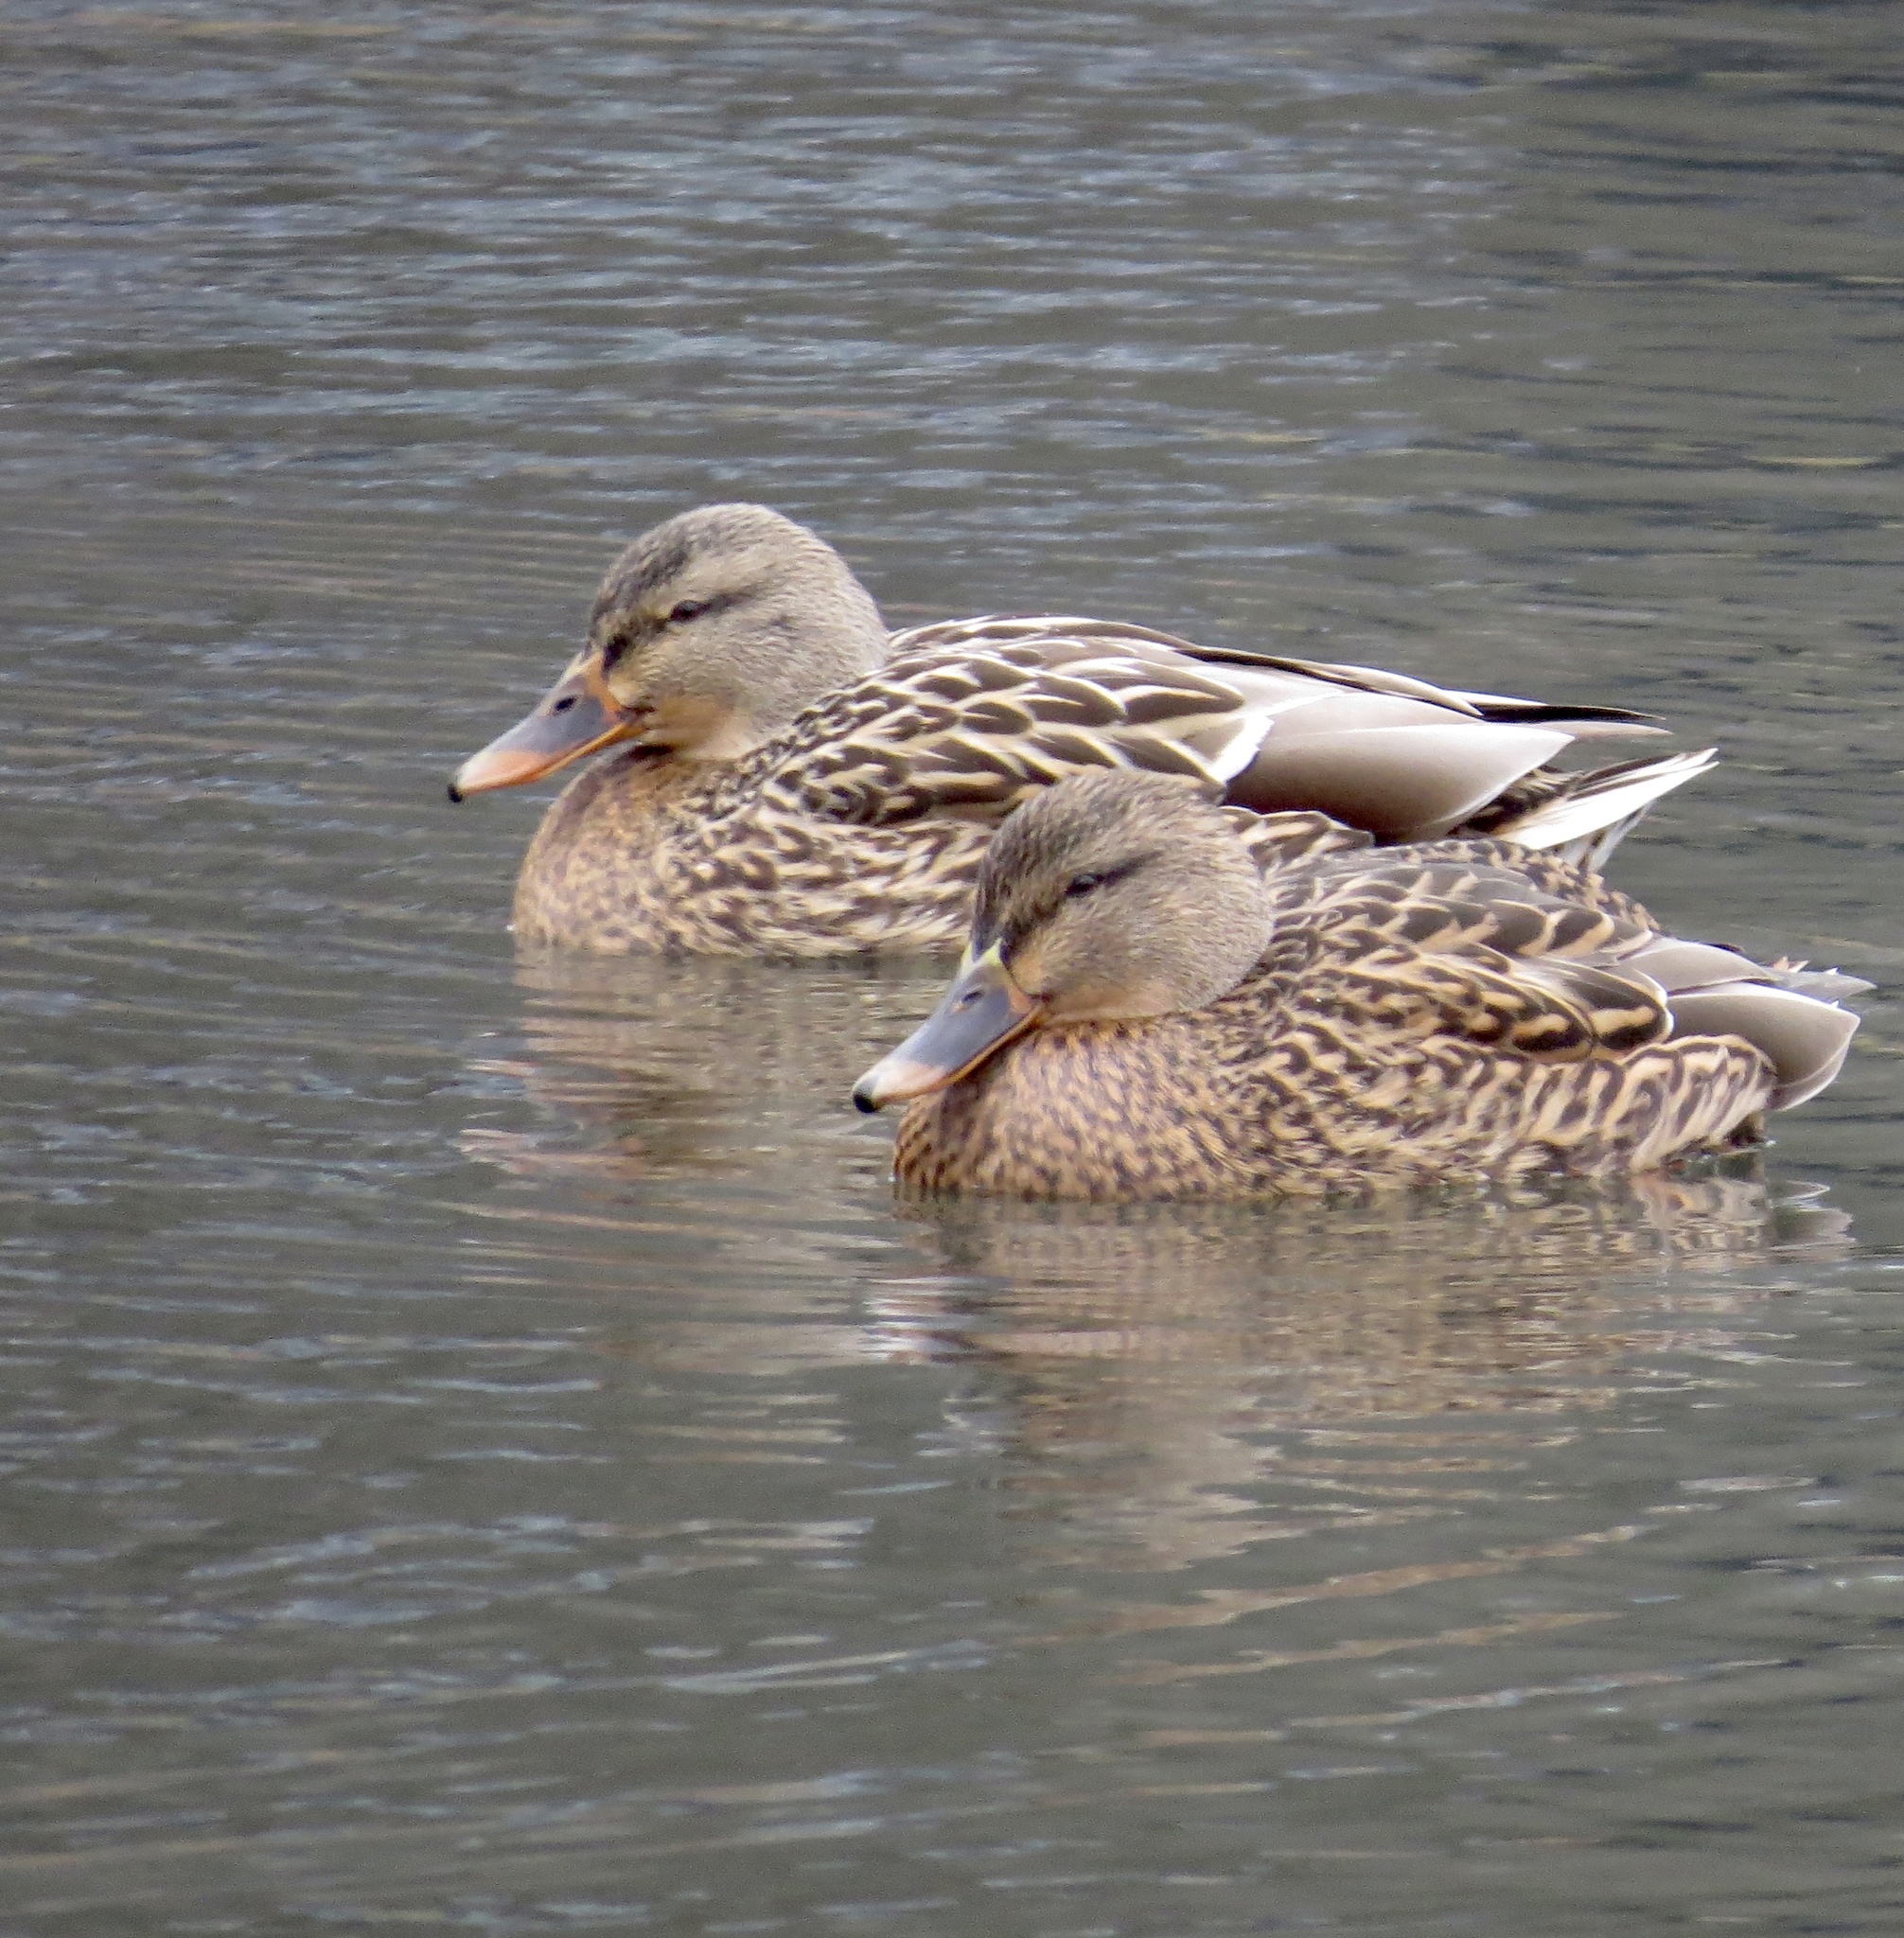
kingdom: Animalia
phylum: Chordata
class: Aves
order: Anseriformes
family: Anatidae
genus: Anas
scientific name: Anas platyrhynchos
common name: Mallard
